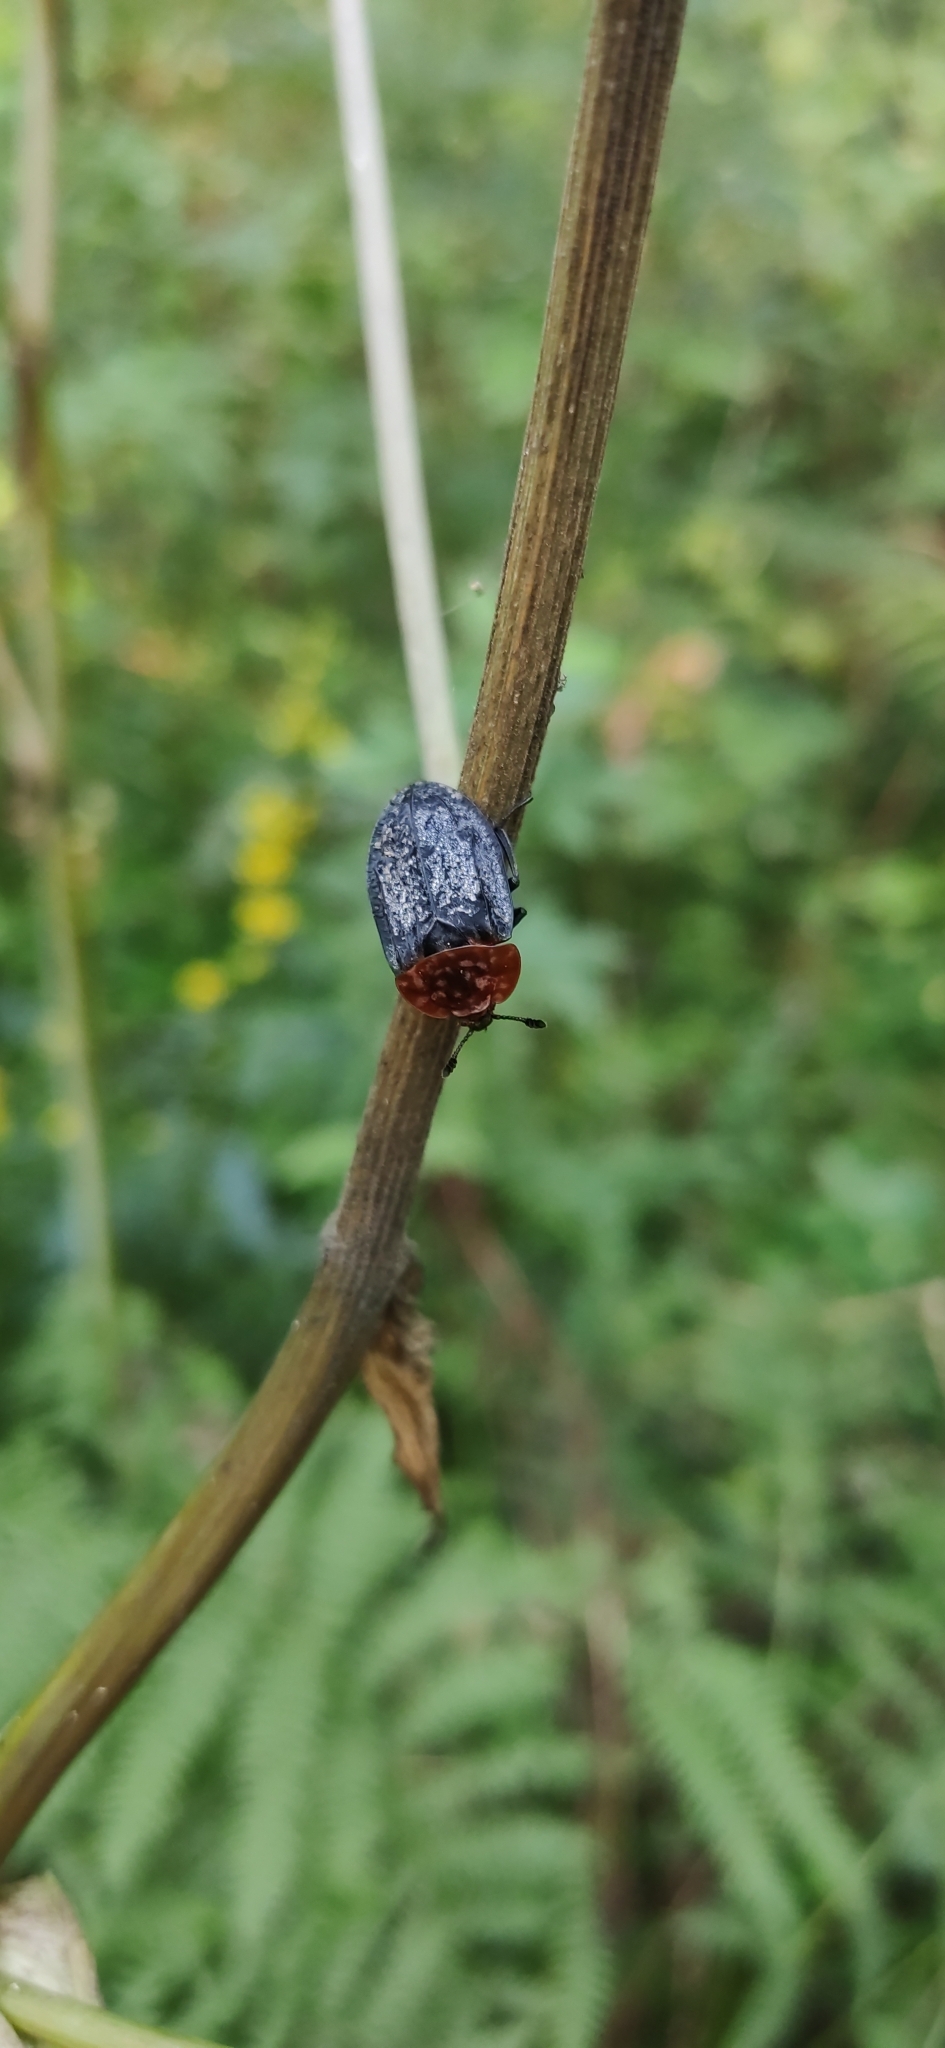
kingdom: Animalia
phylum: Arthropoda
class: Insecta
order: Coleoptera
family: Staphylinidae
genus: Oiceoptoma
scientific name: Oiceoptoma thoracicum
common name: Red-breasted carrion beetle
